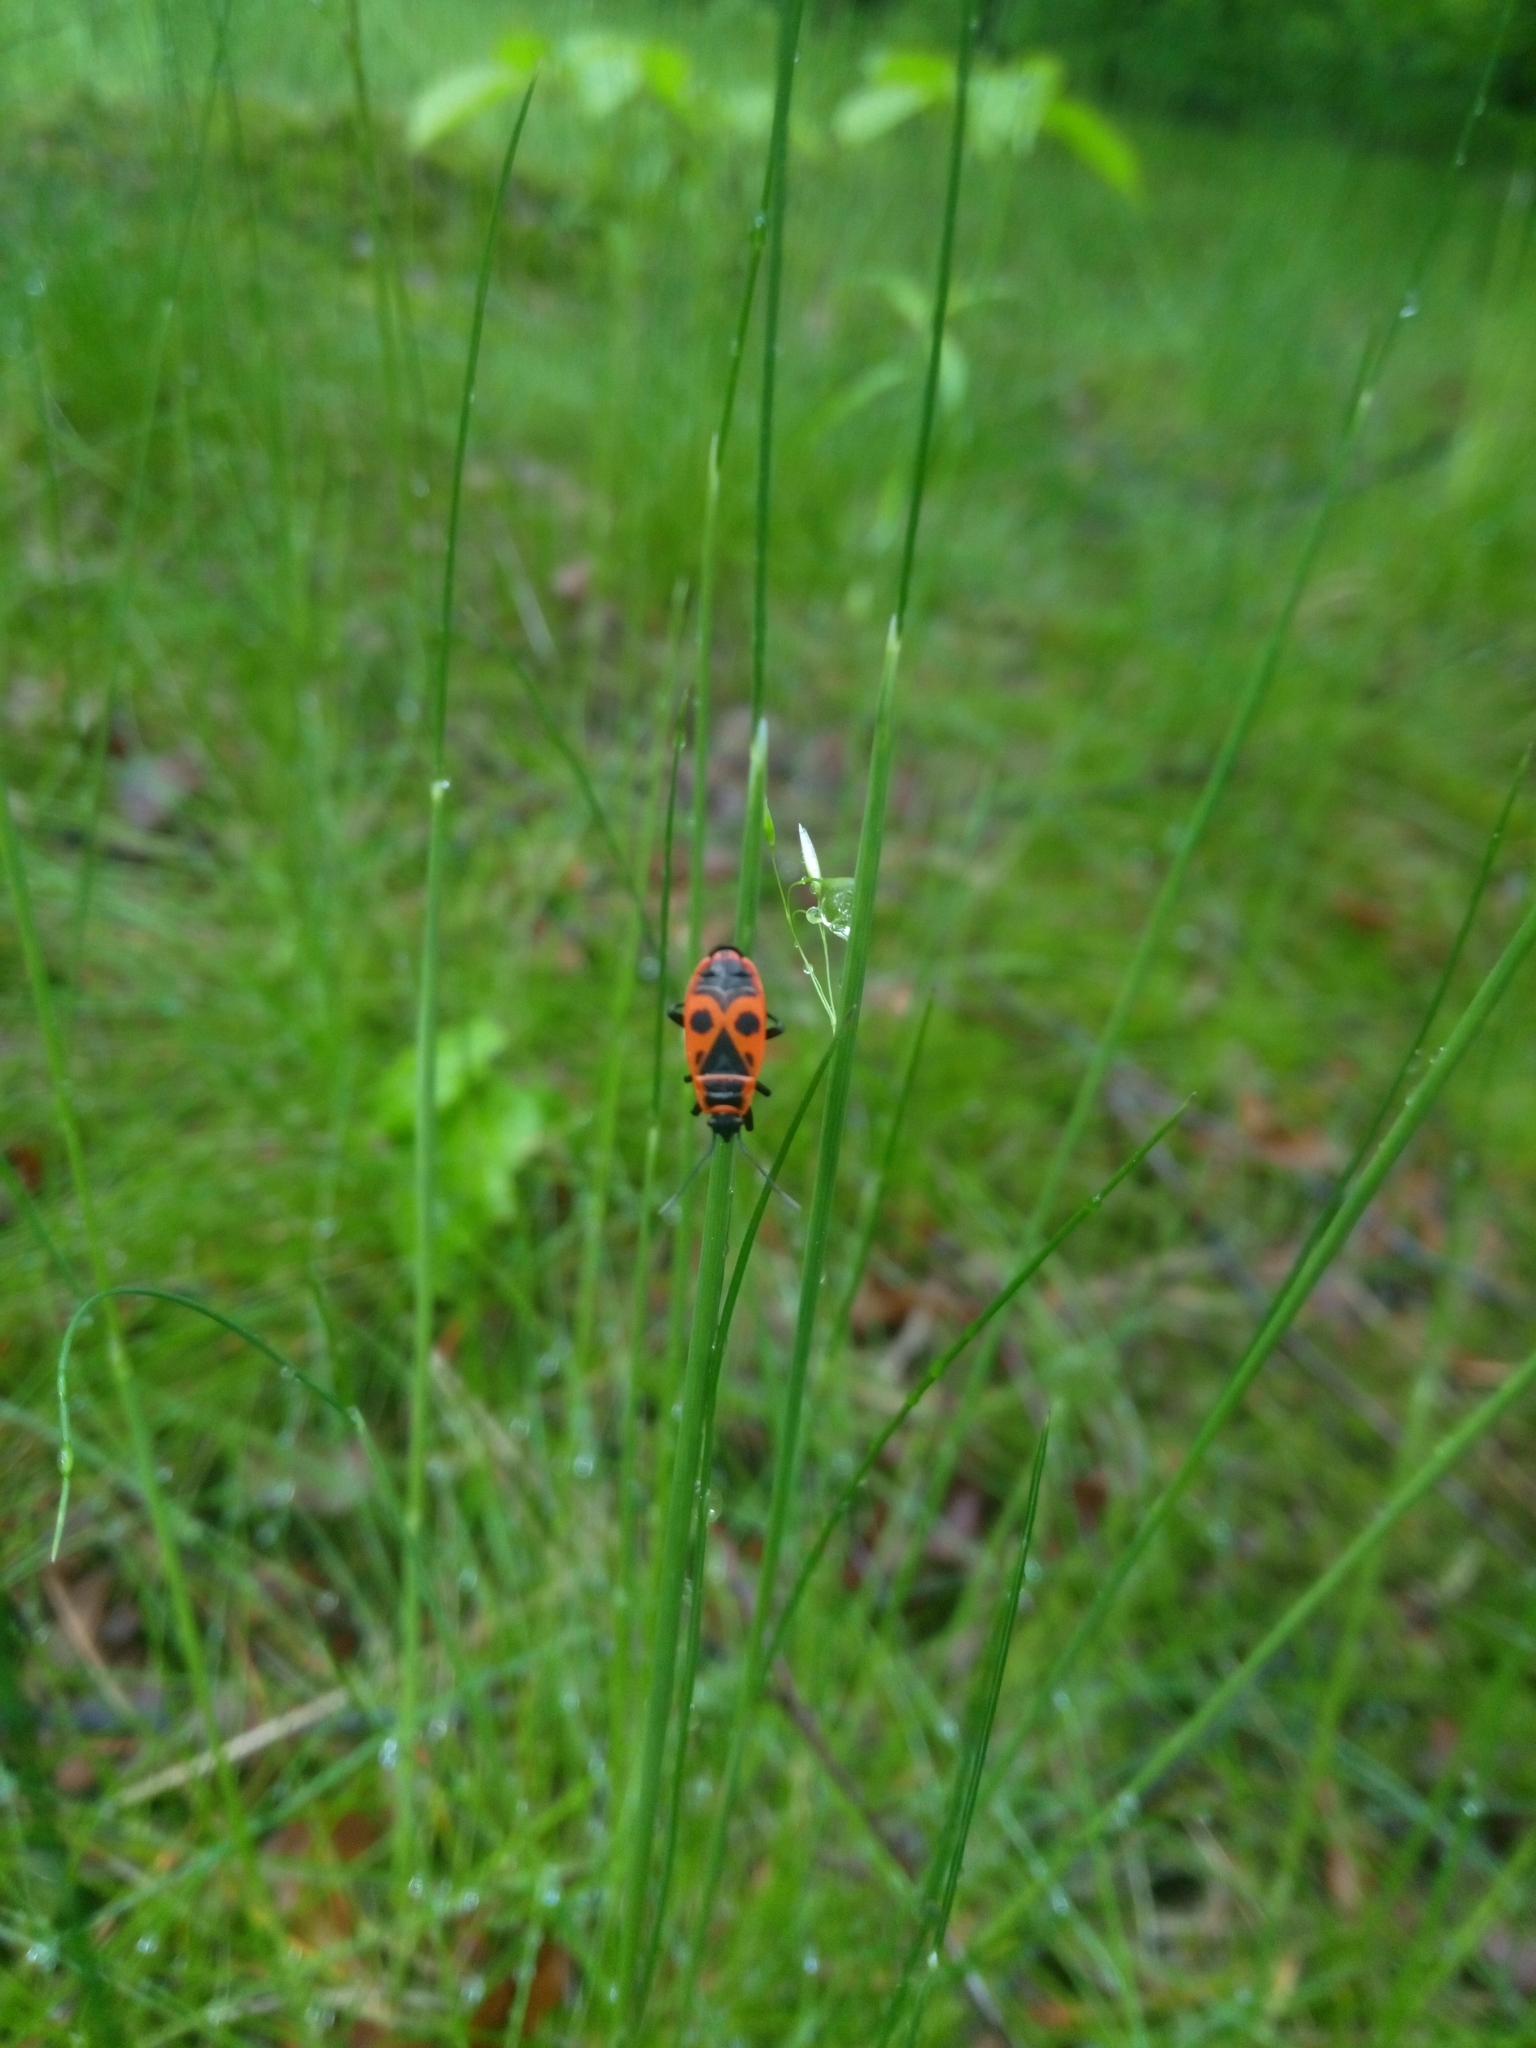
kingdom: Animalia
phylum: Arthropoda
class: Insecta
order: Hemiptera
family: Pyrrhocoridae
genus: Pyrrhocoris
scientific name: Pyrrhocoris apterus
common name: Firebug
